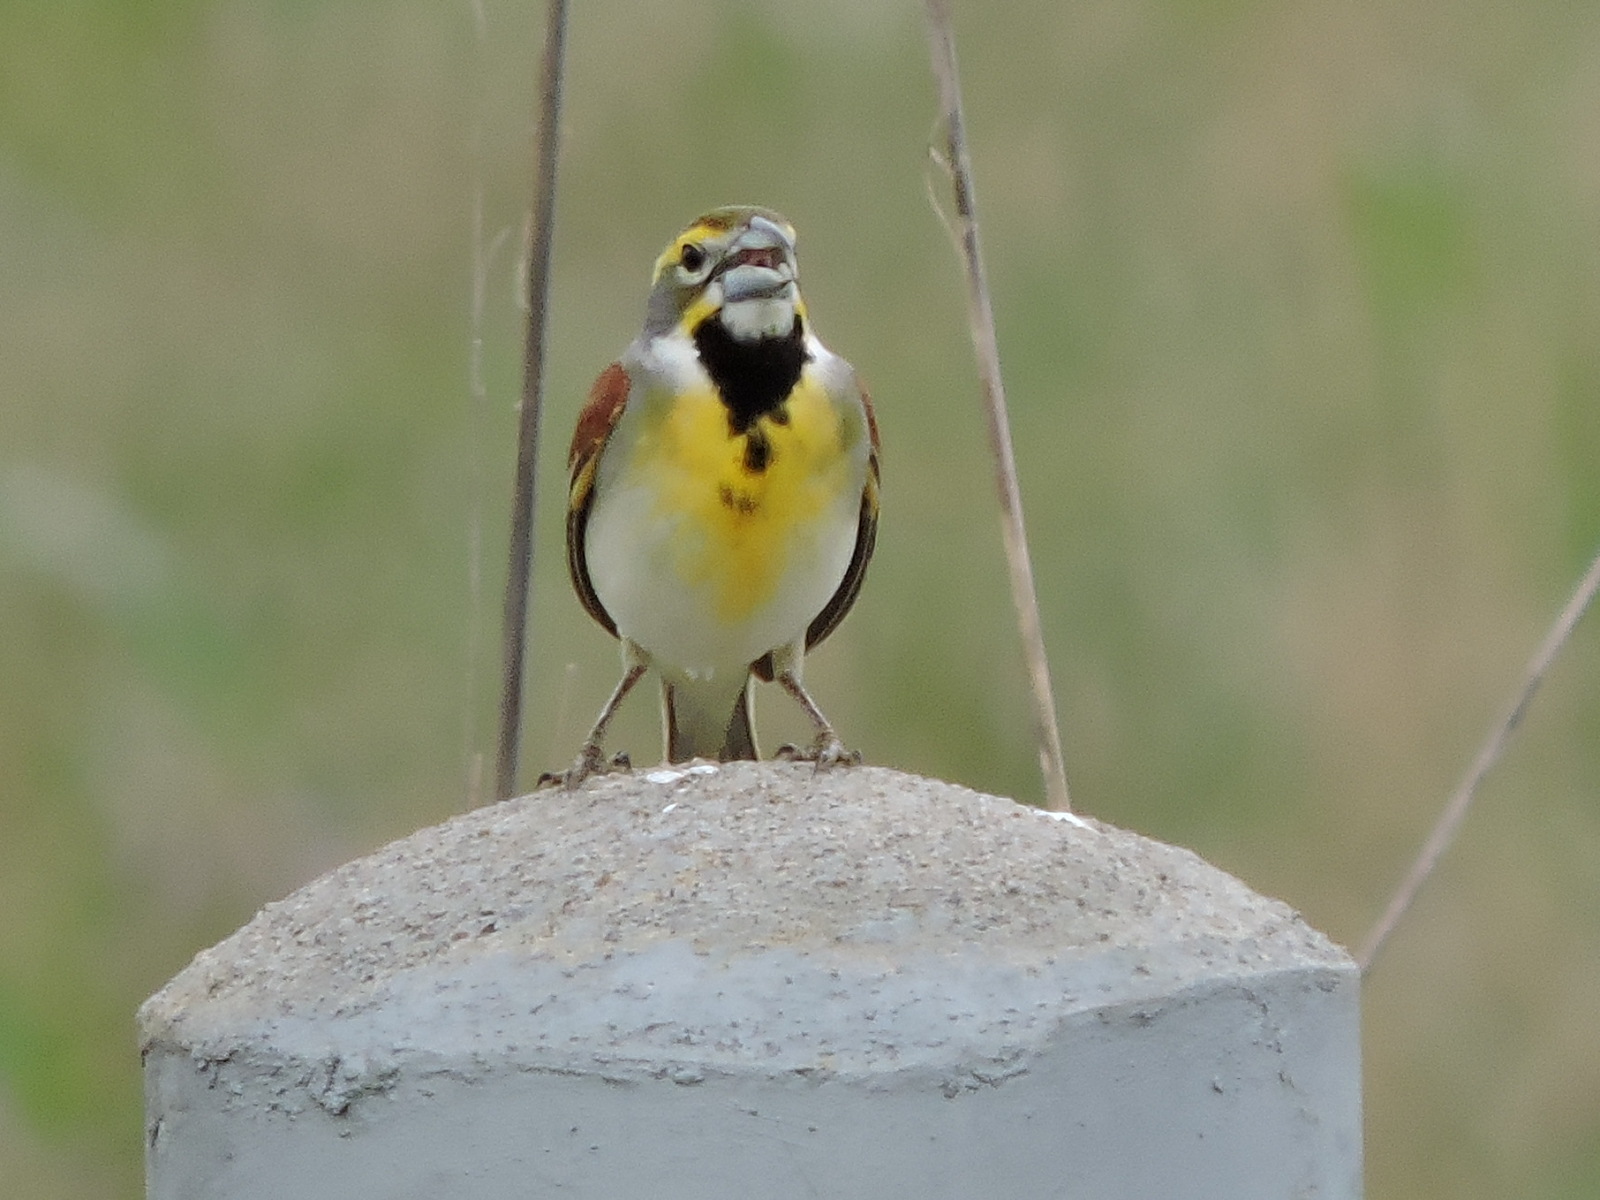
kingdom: Animalia
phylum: Chordata
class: Aves
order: Passeriformes
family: Cardinalidae
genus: Spiza
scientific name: Spiza americana
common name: Dickcissel
